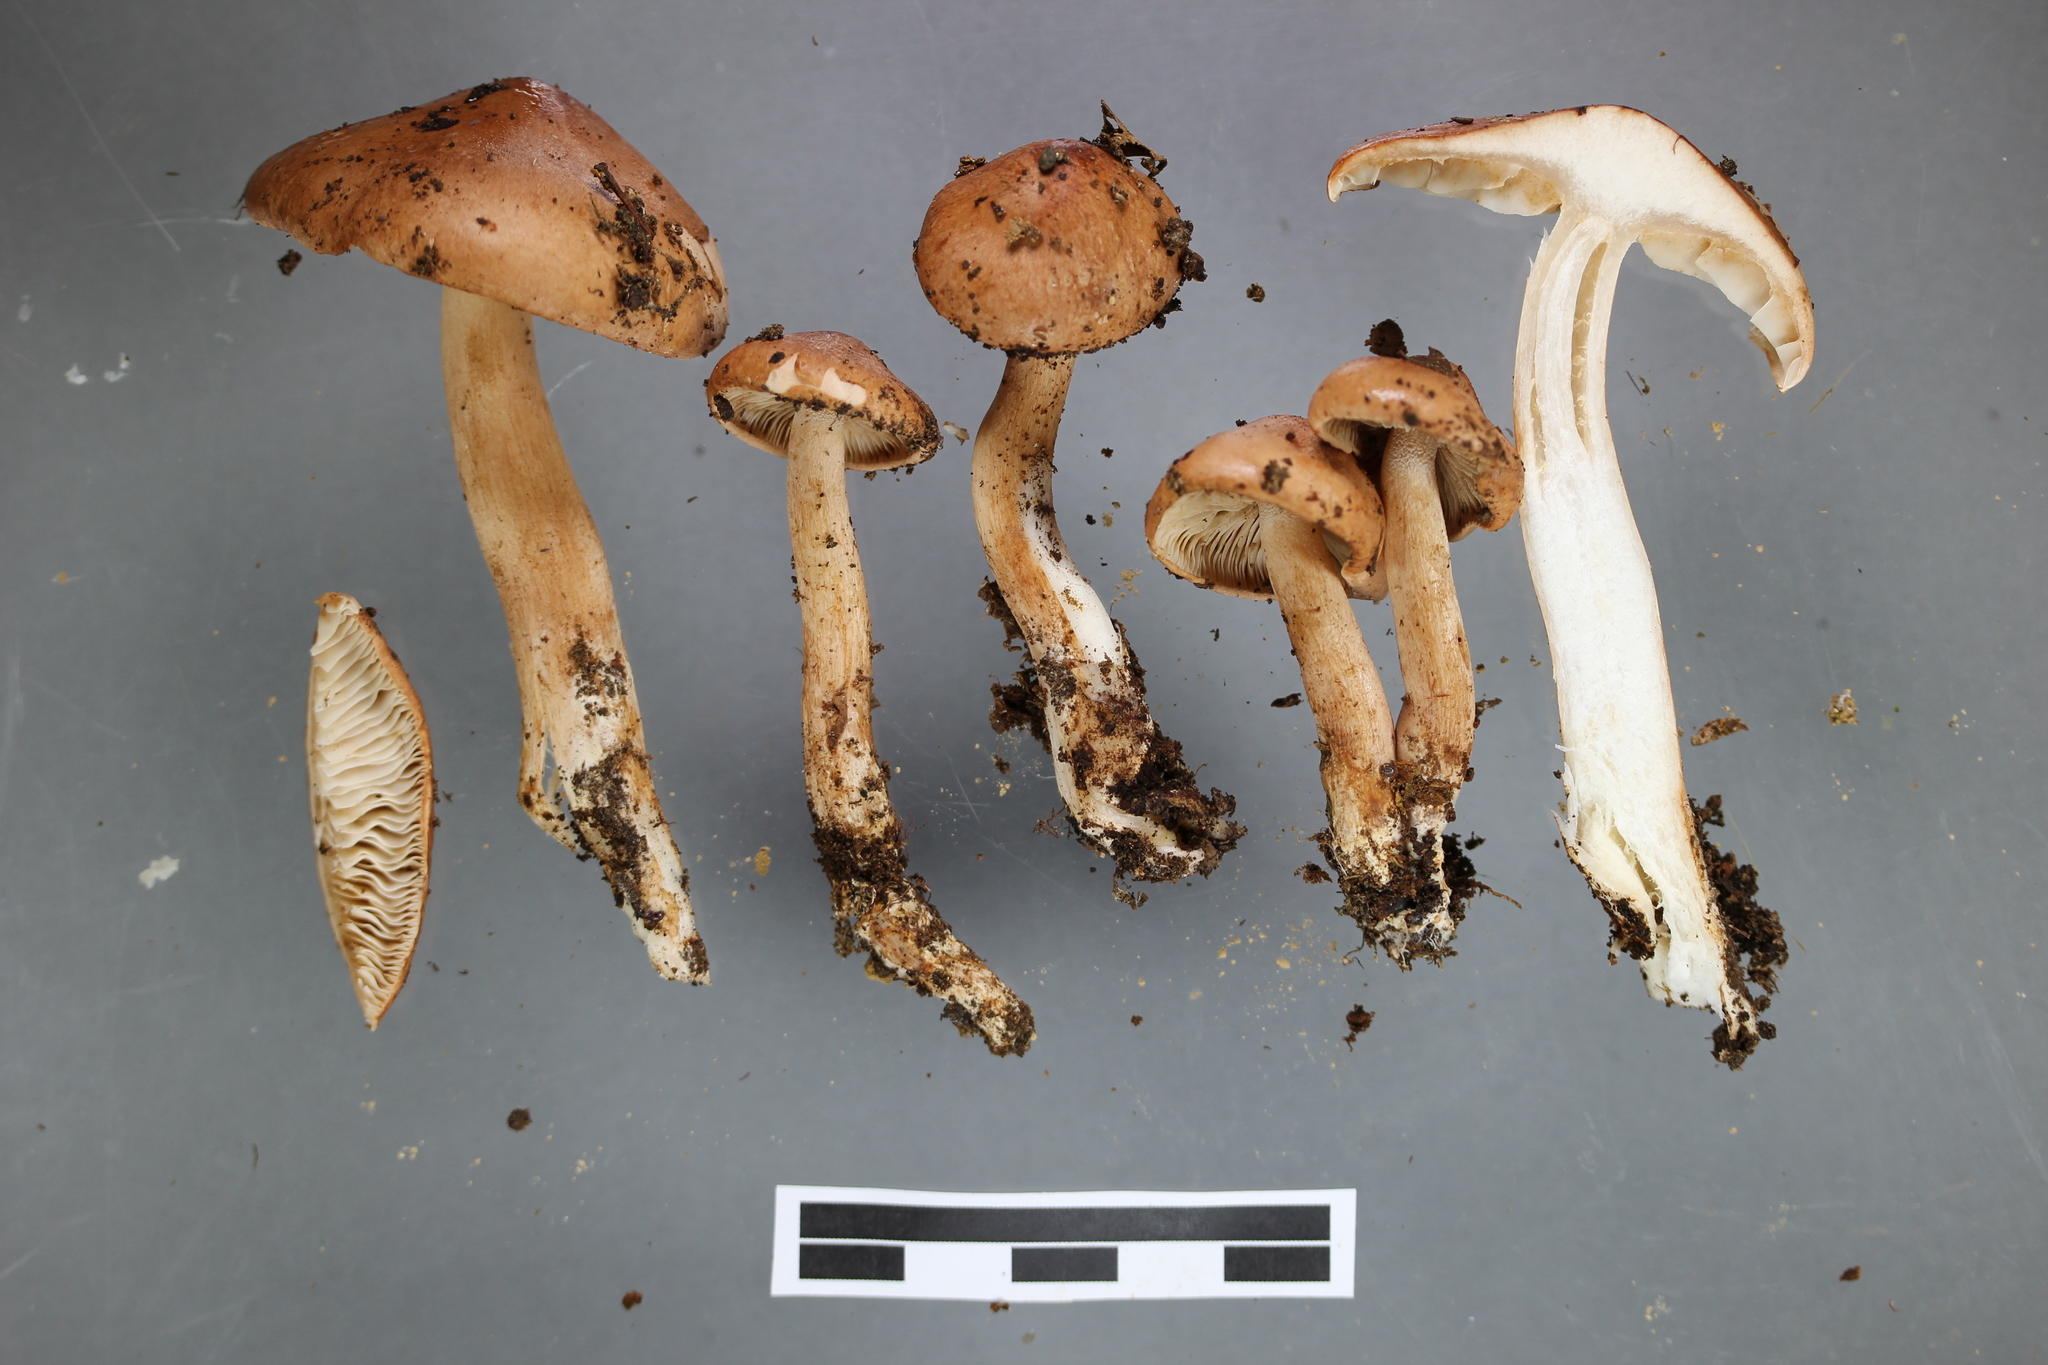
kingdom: Fungi
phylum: Basidiomycota
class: Agaricomycetes
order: Agaricales
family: Tricholomataceae
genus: Tricholoma
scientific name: Tricholoma elegans
